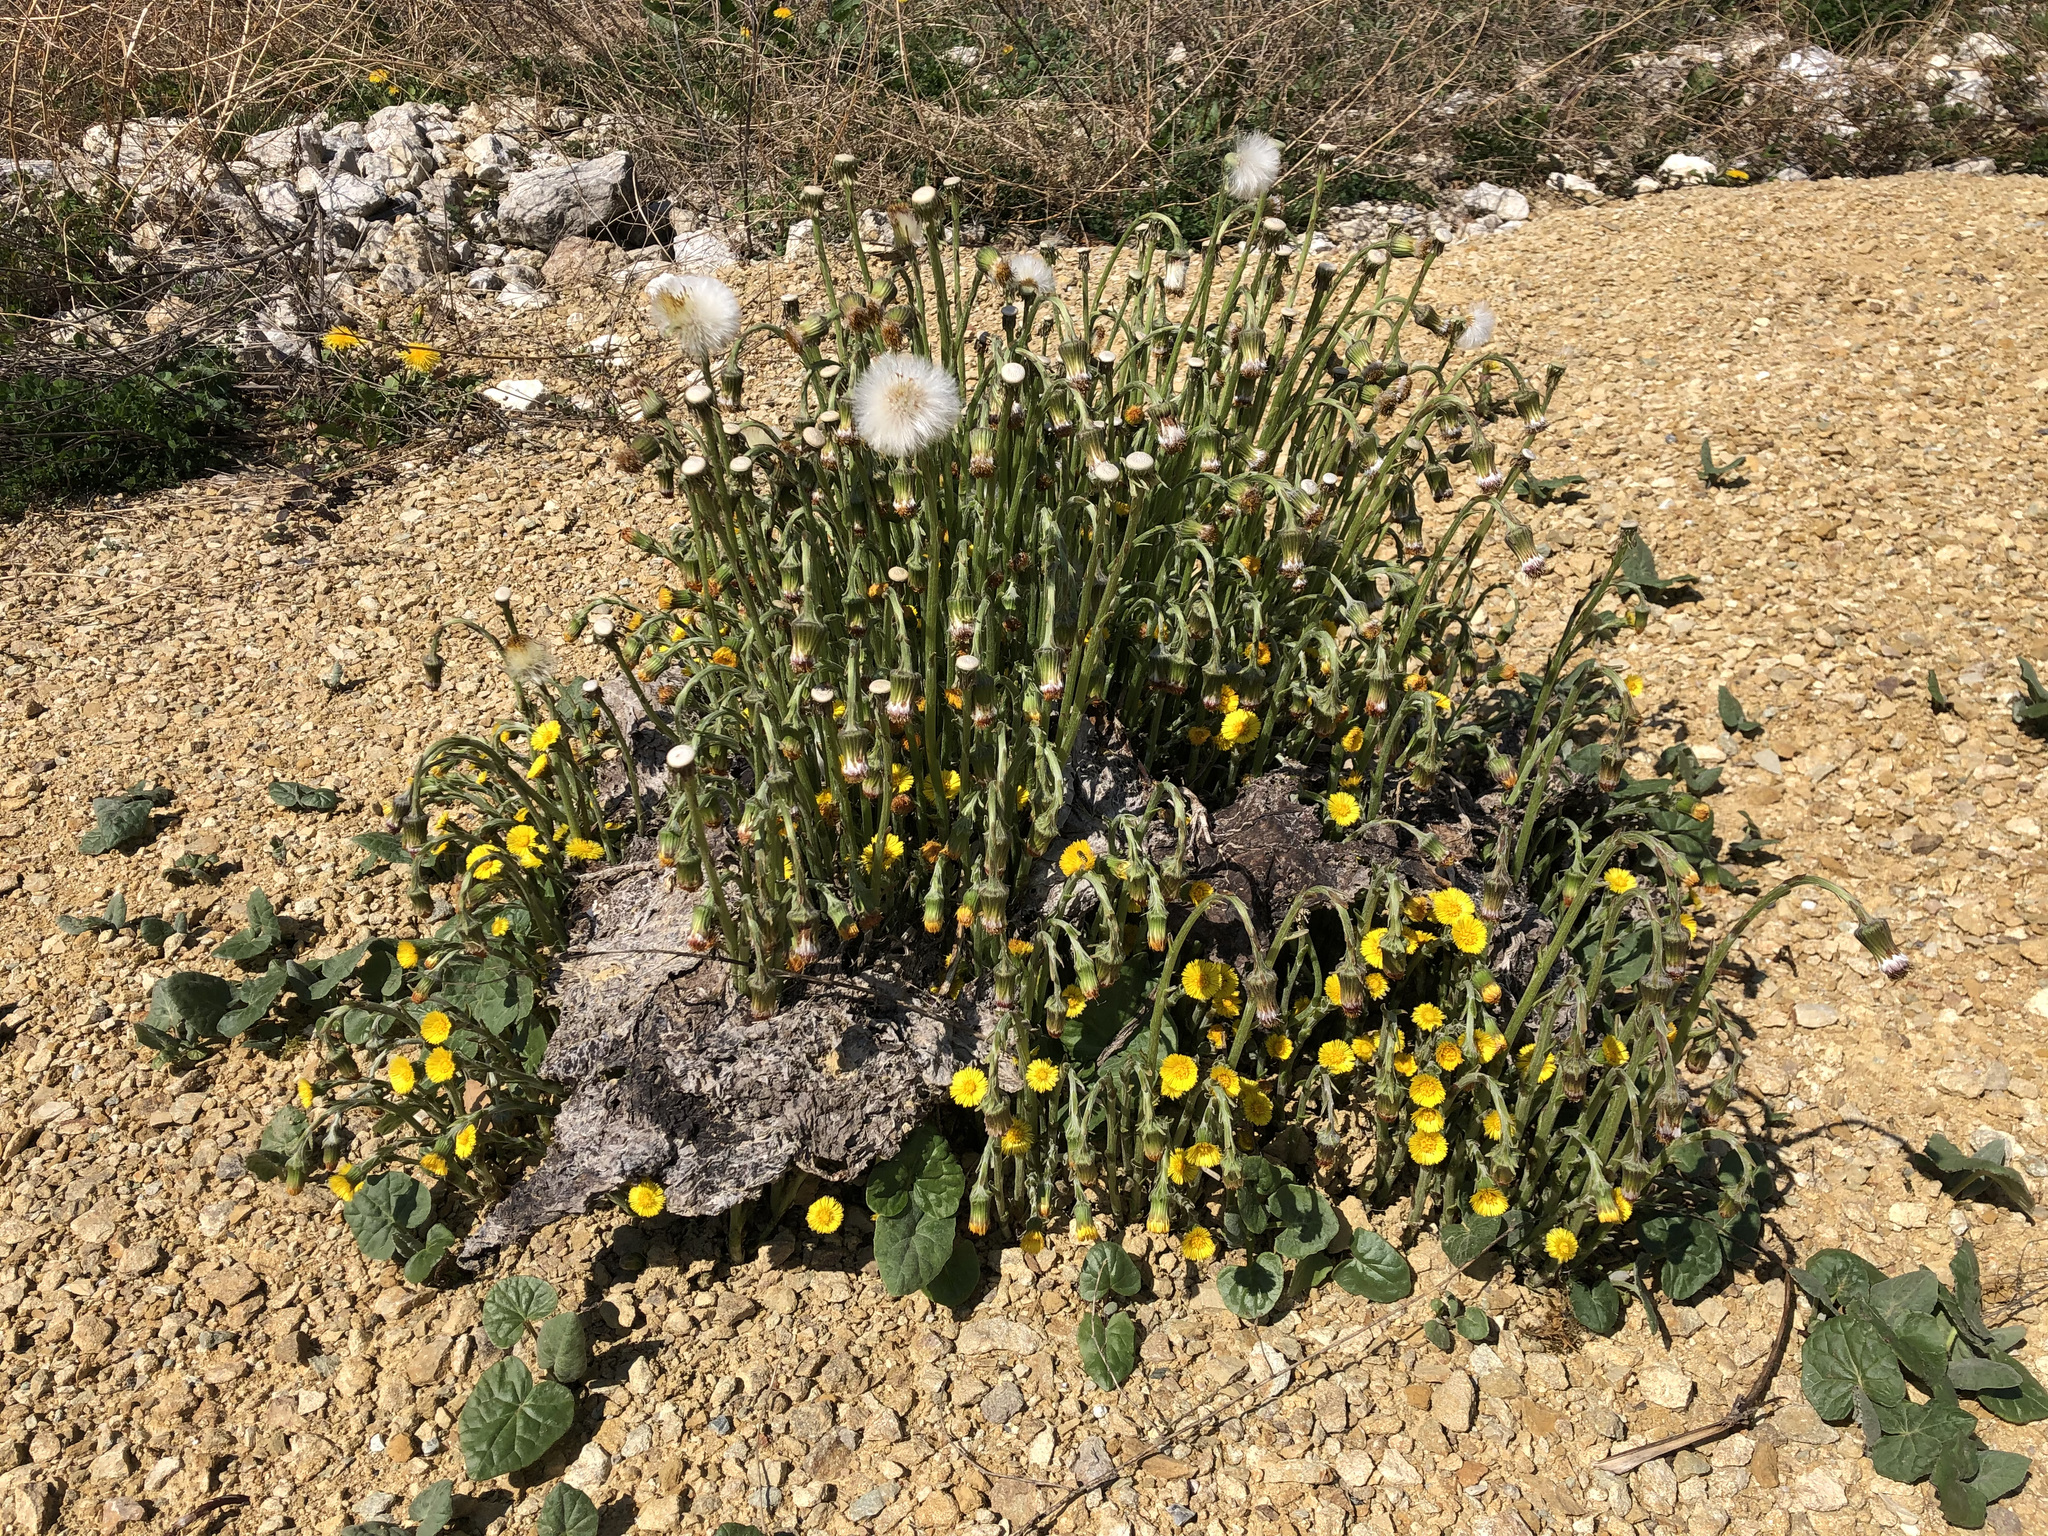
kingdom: Plantae
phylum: Tracheophyta
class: Magnoliopsida
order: Asterales
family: Asteraceae
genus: Tussilago
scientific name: Tussilago farfara
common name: Coltsfoot
